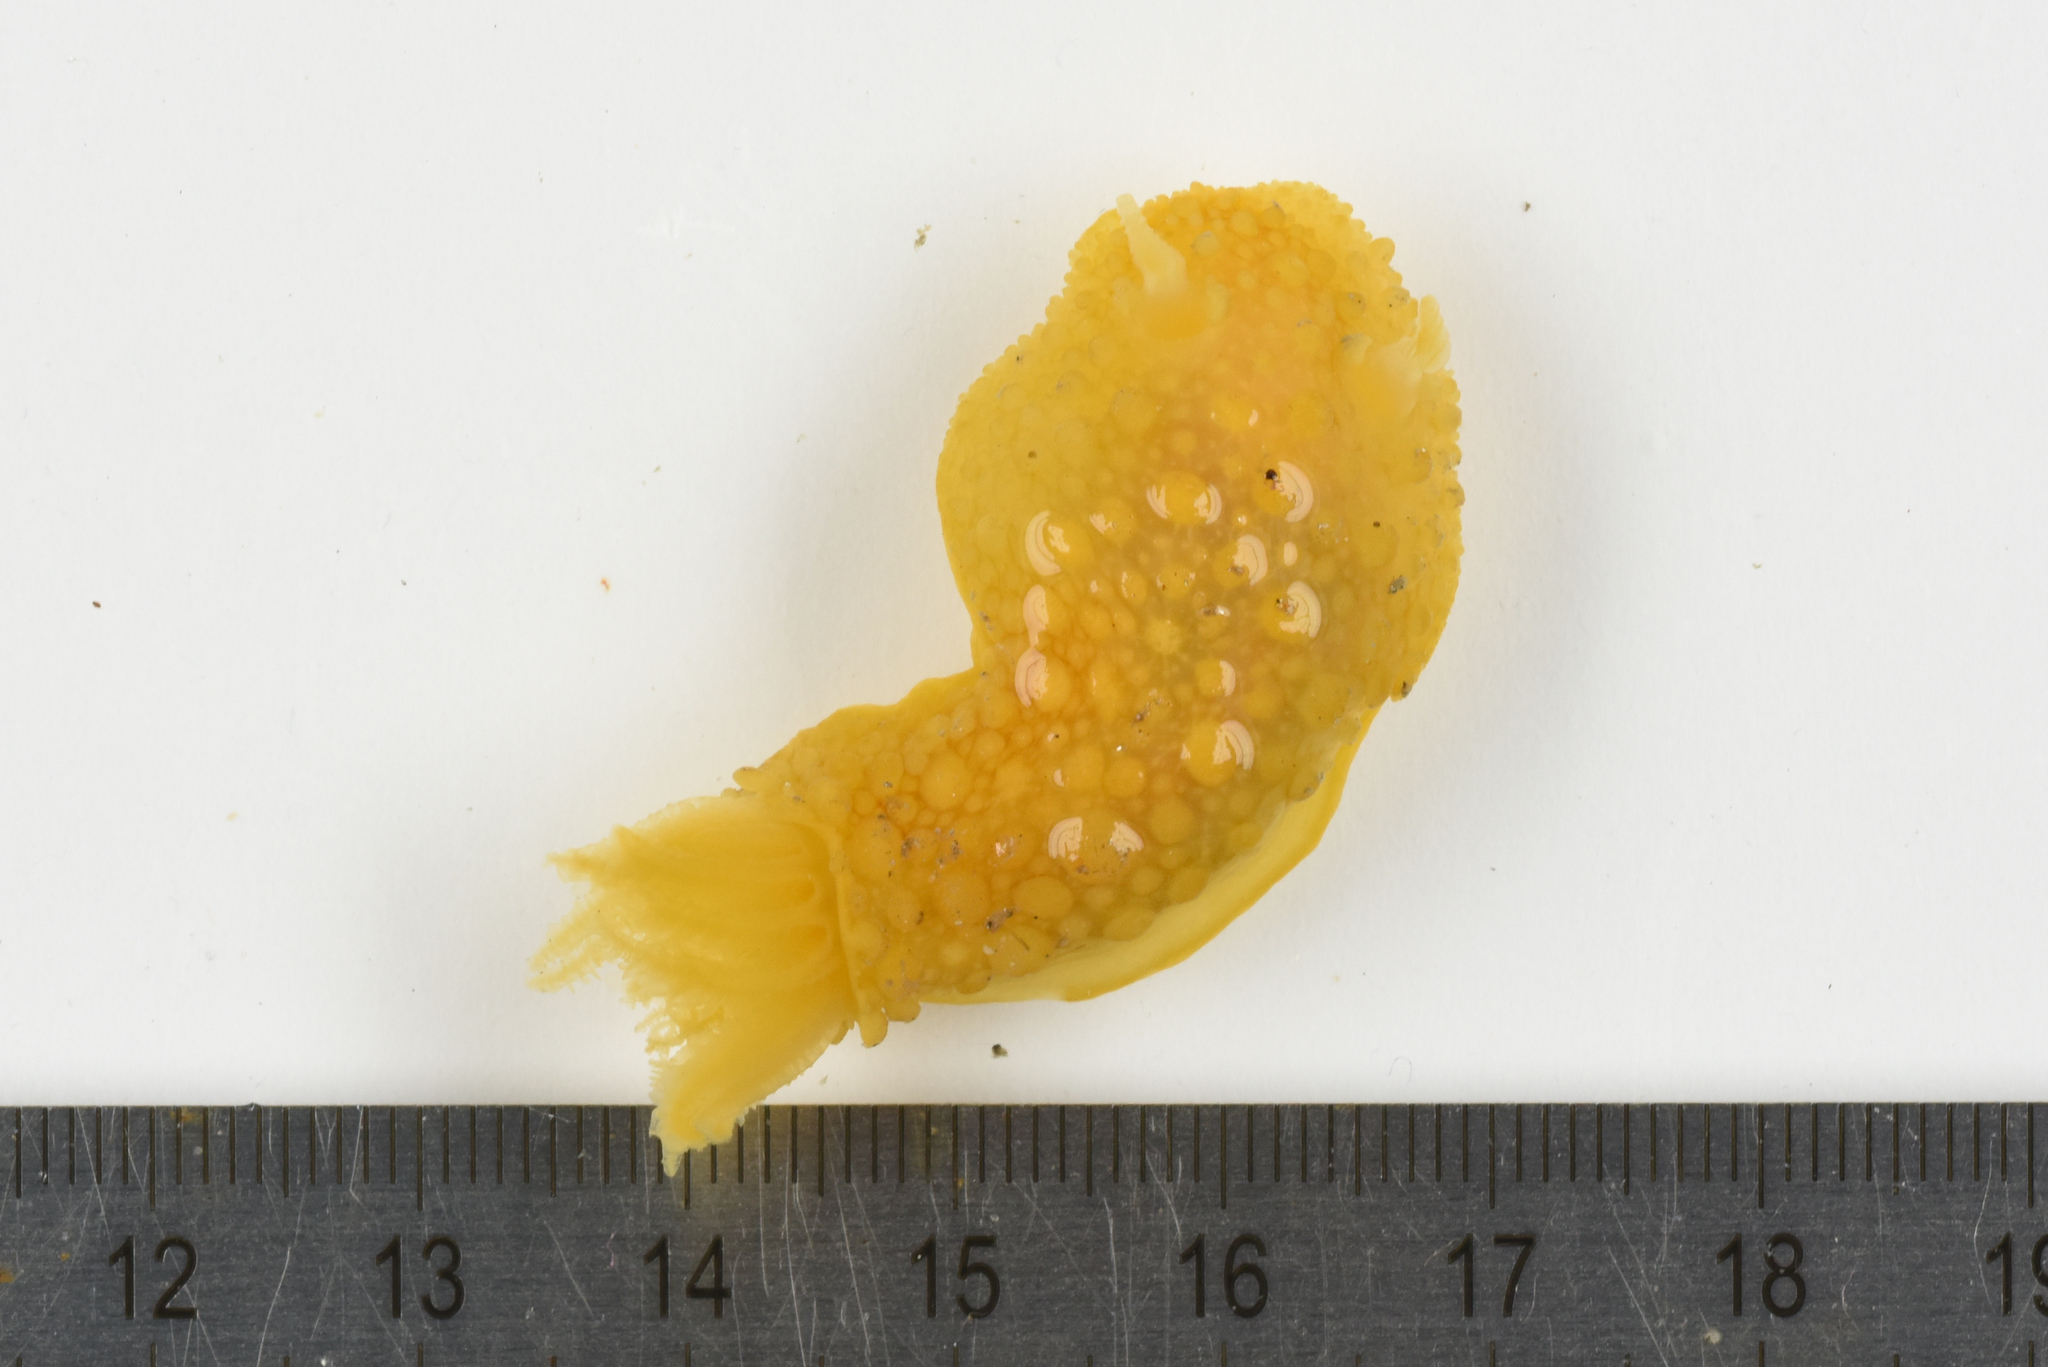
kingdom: Animalia
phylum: Mollusca
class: Gastropoda
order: Nudibranchia
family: Dorididae
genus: Doris
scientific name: Doris verrucosa
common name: Sponge seaslug
